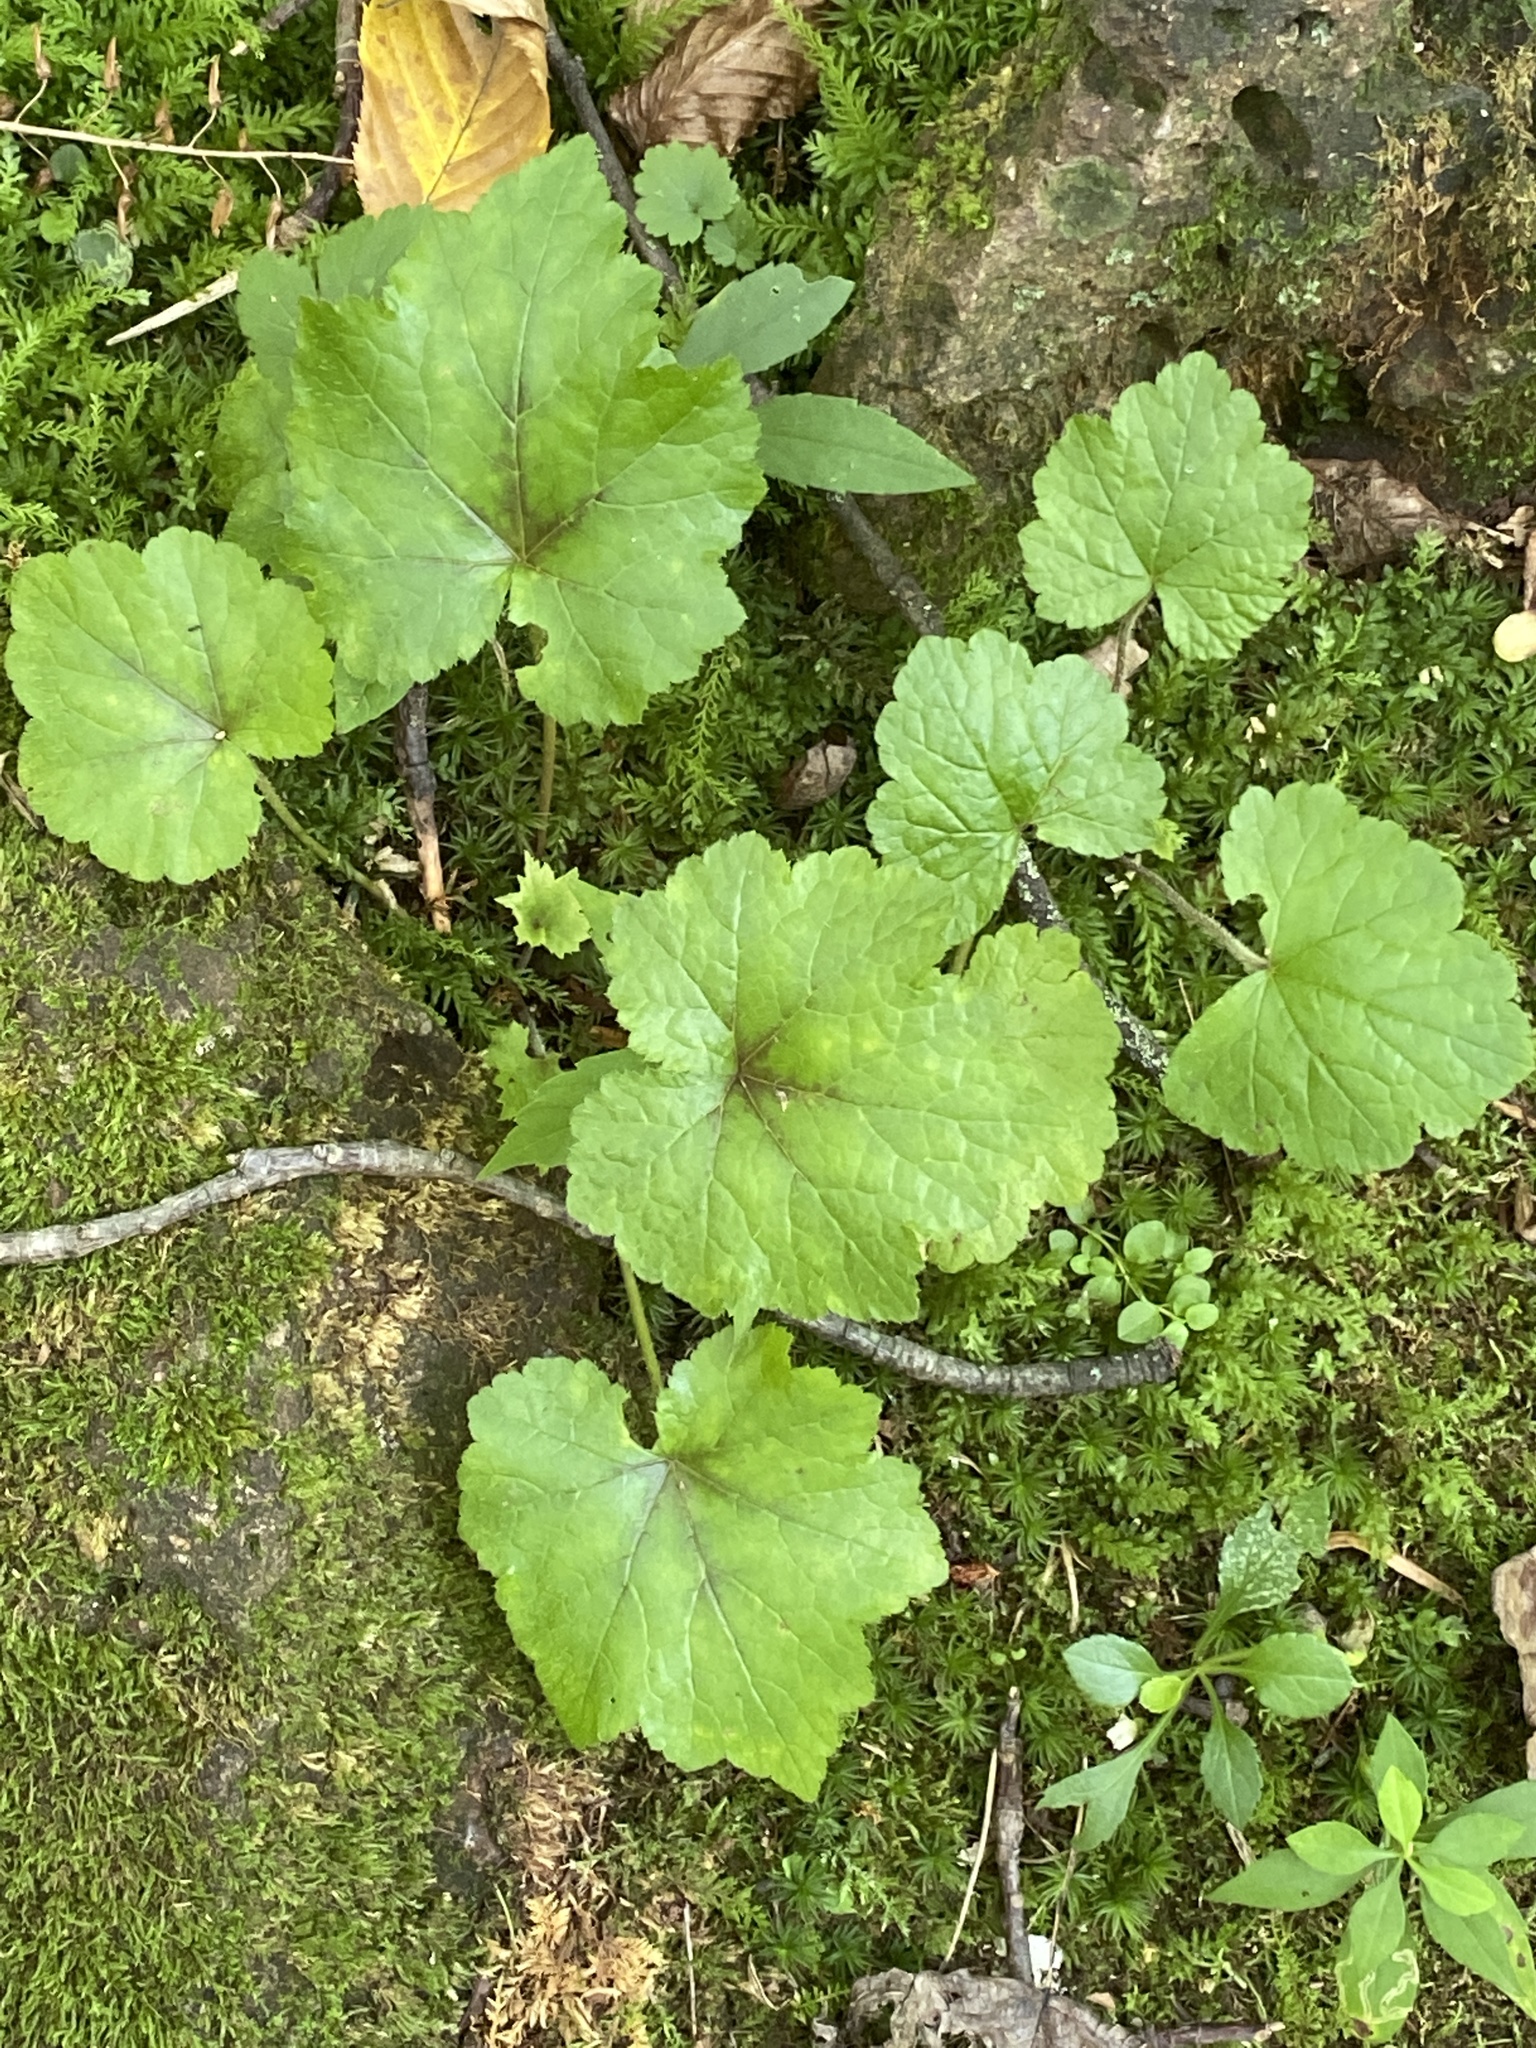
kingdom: Plantae
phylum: Tracheophyta
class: Magnoliopsida
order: Saxifragales
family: Saxifragaceae
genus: Tiarella
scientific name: Tiarella stolonifera
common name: Stoloniferous foamflower
